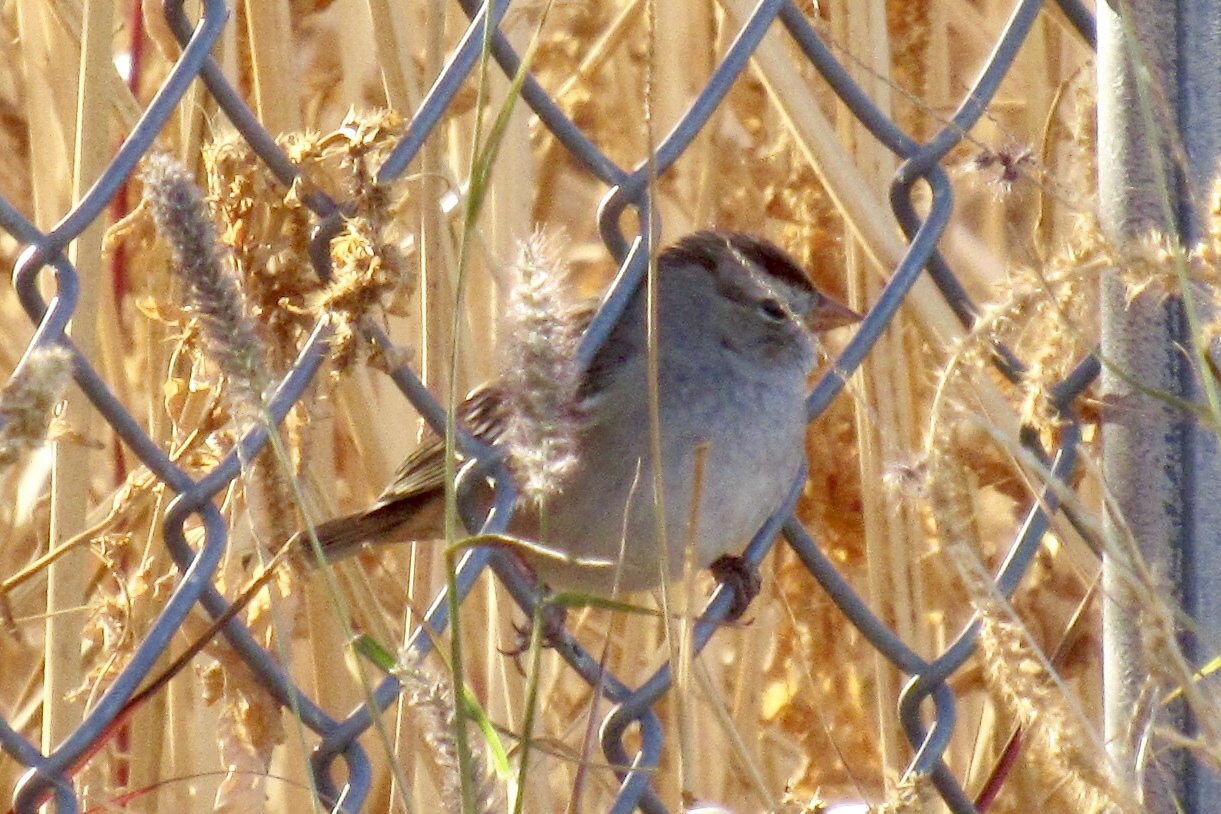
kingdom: Animalia
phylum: Chordata
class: Aves
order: Passeriformes
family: Passerellidae
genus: Zonotrichia
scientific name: Zonotrichia leucophrys
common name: White-crowned sparrow
